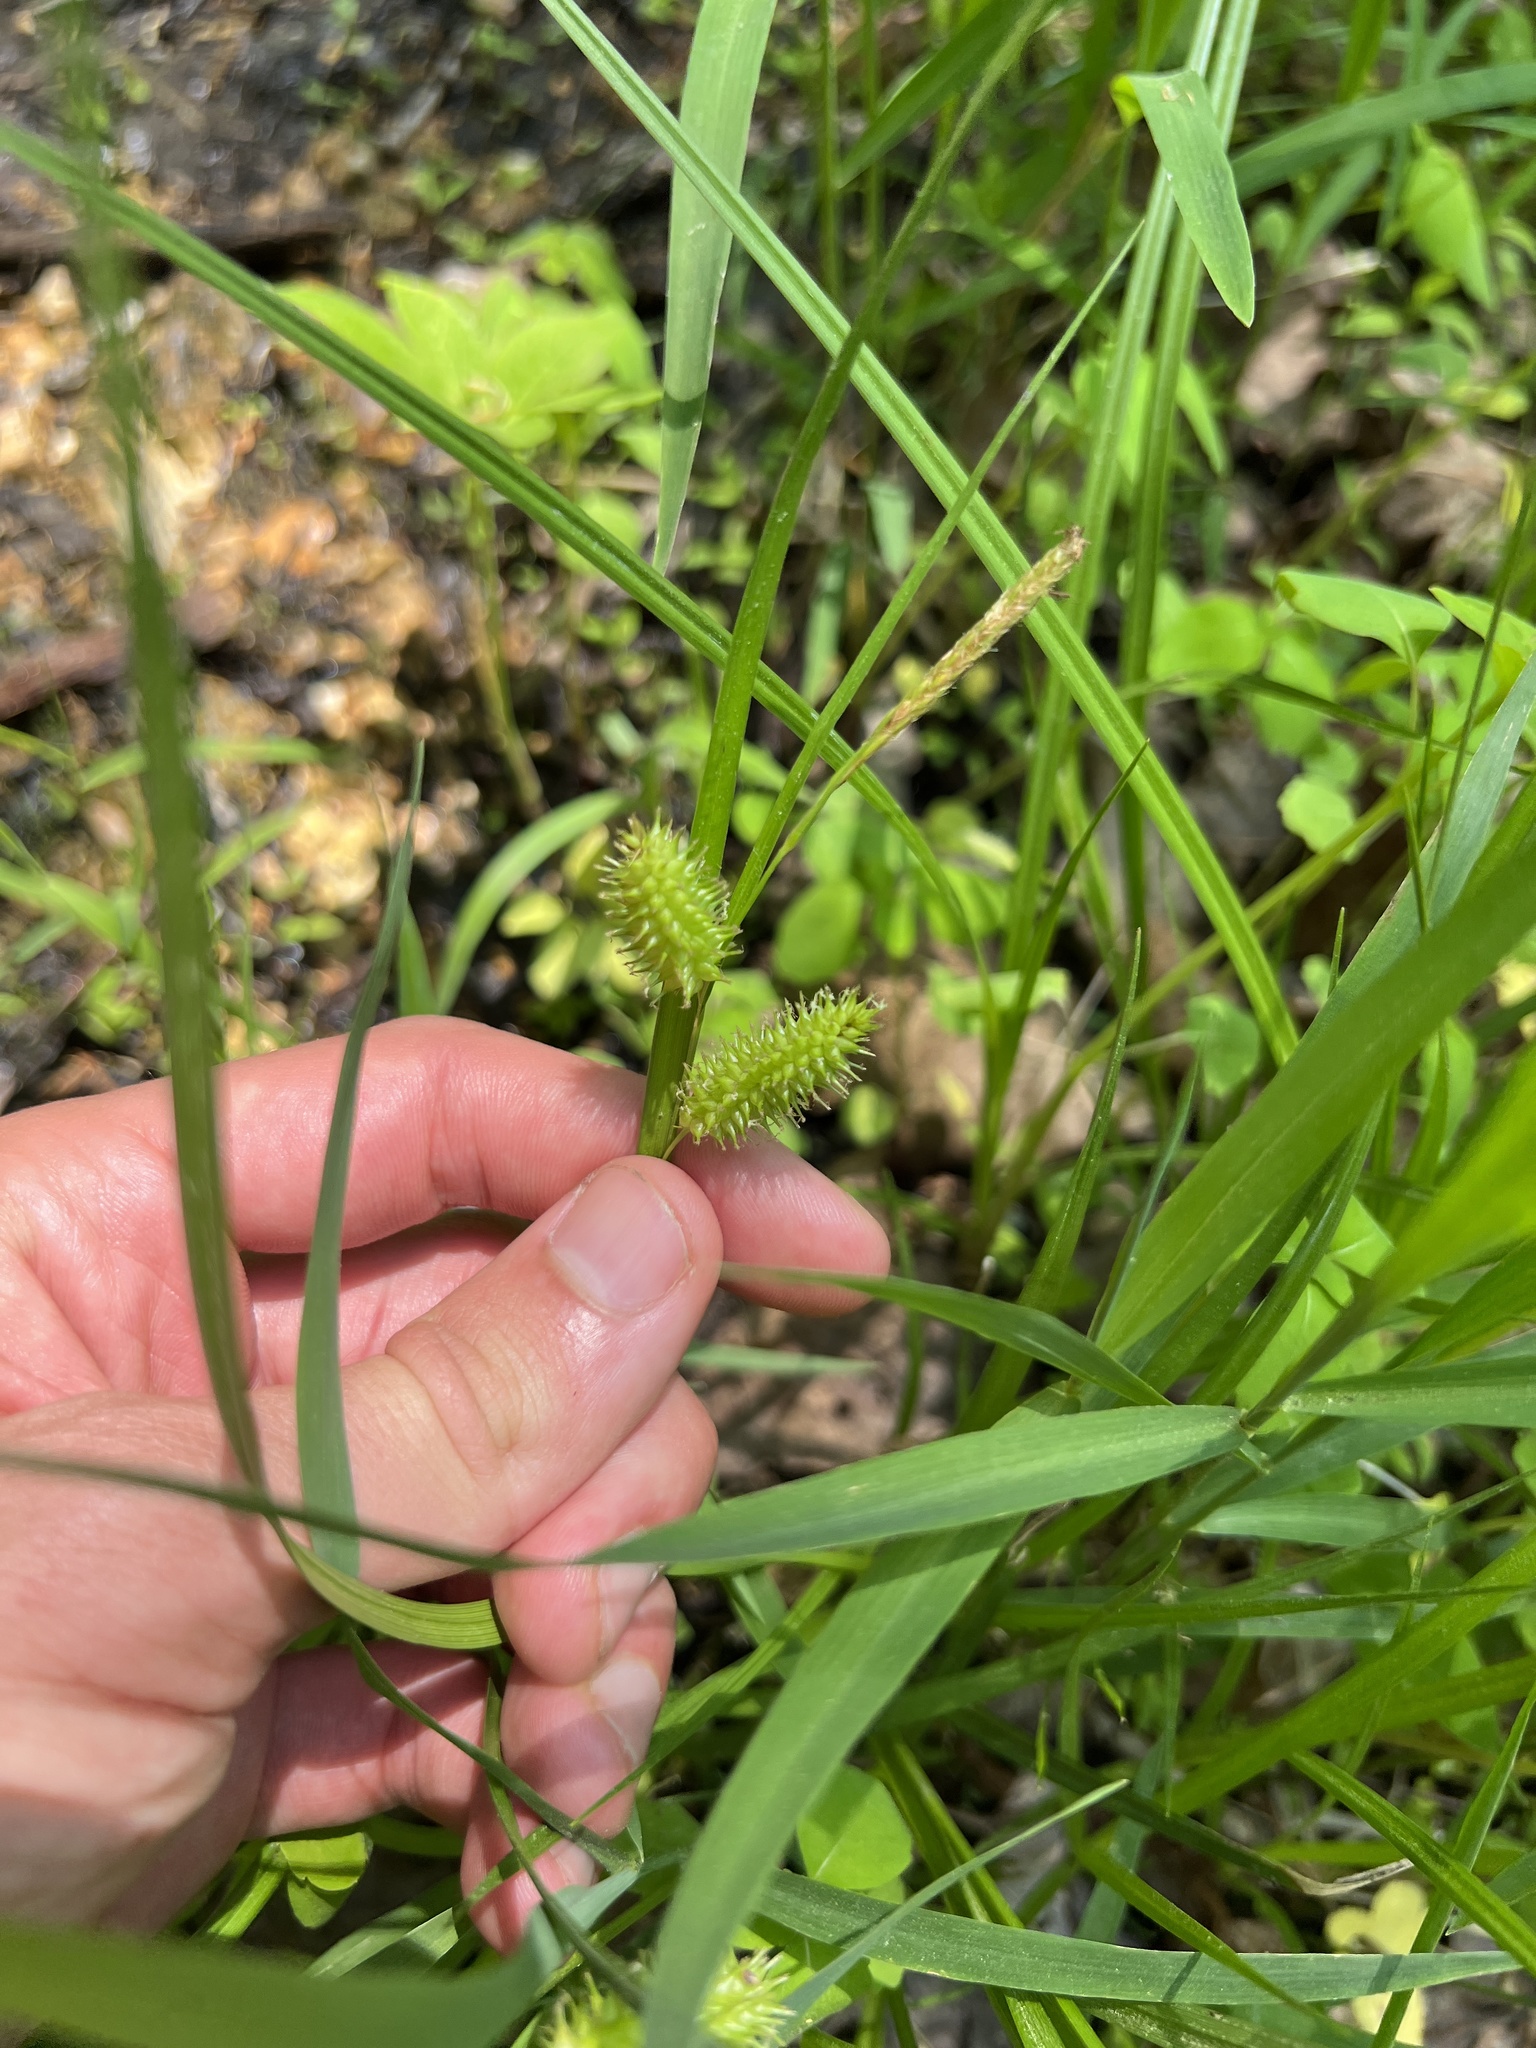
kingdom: Plantae
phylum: Tracheophyta
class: Liliopsida
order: Poales
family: Cyperaceae
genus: Carex
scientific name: Carex hystericina
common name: Bottlebrush sedge
